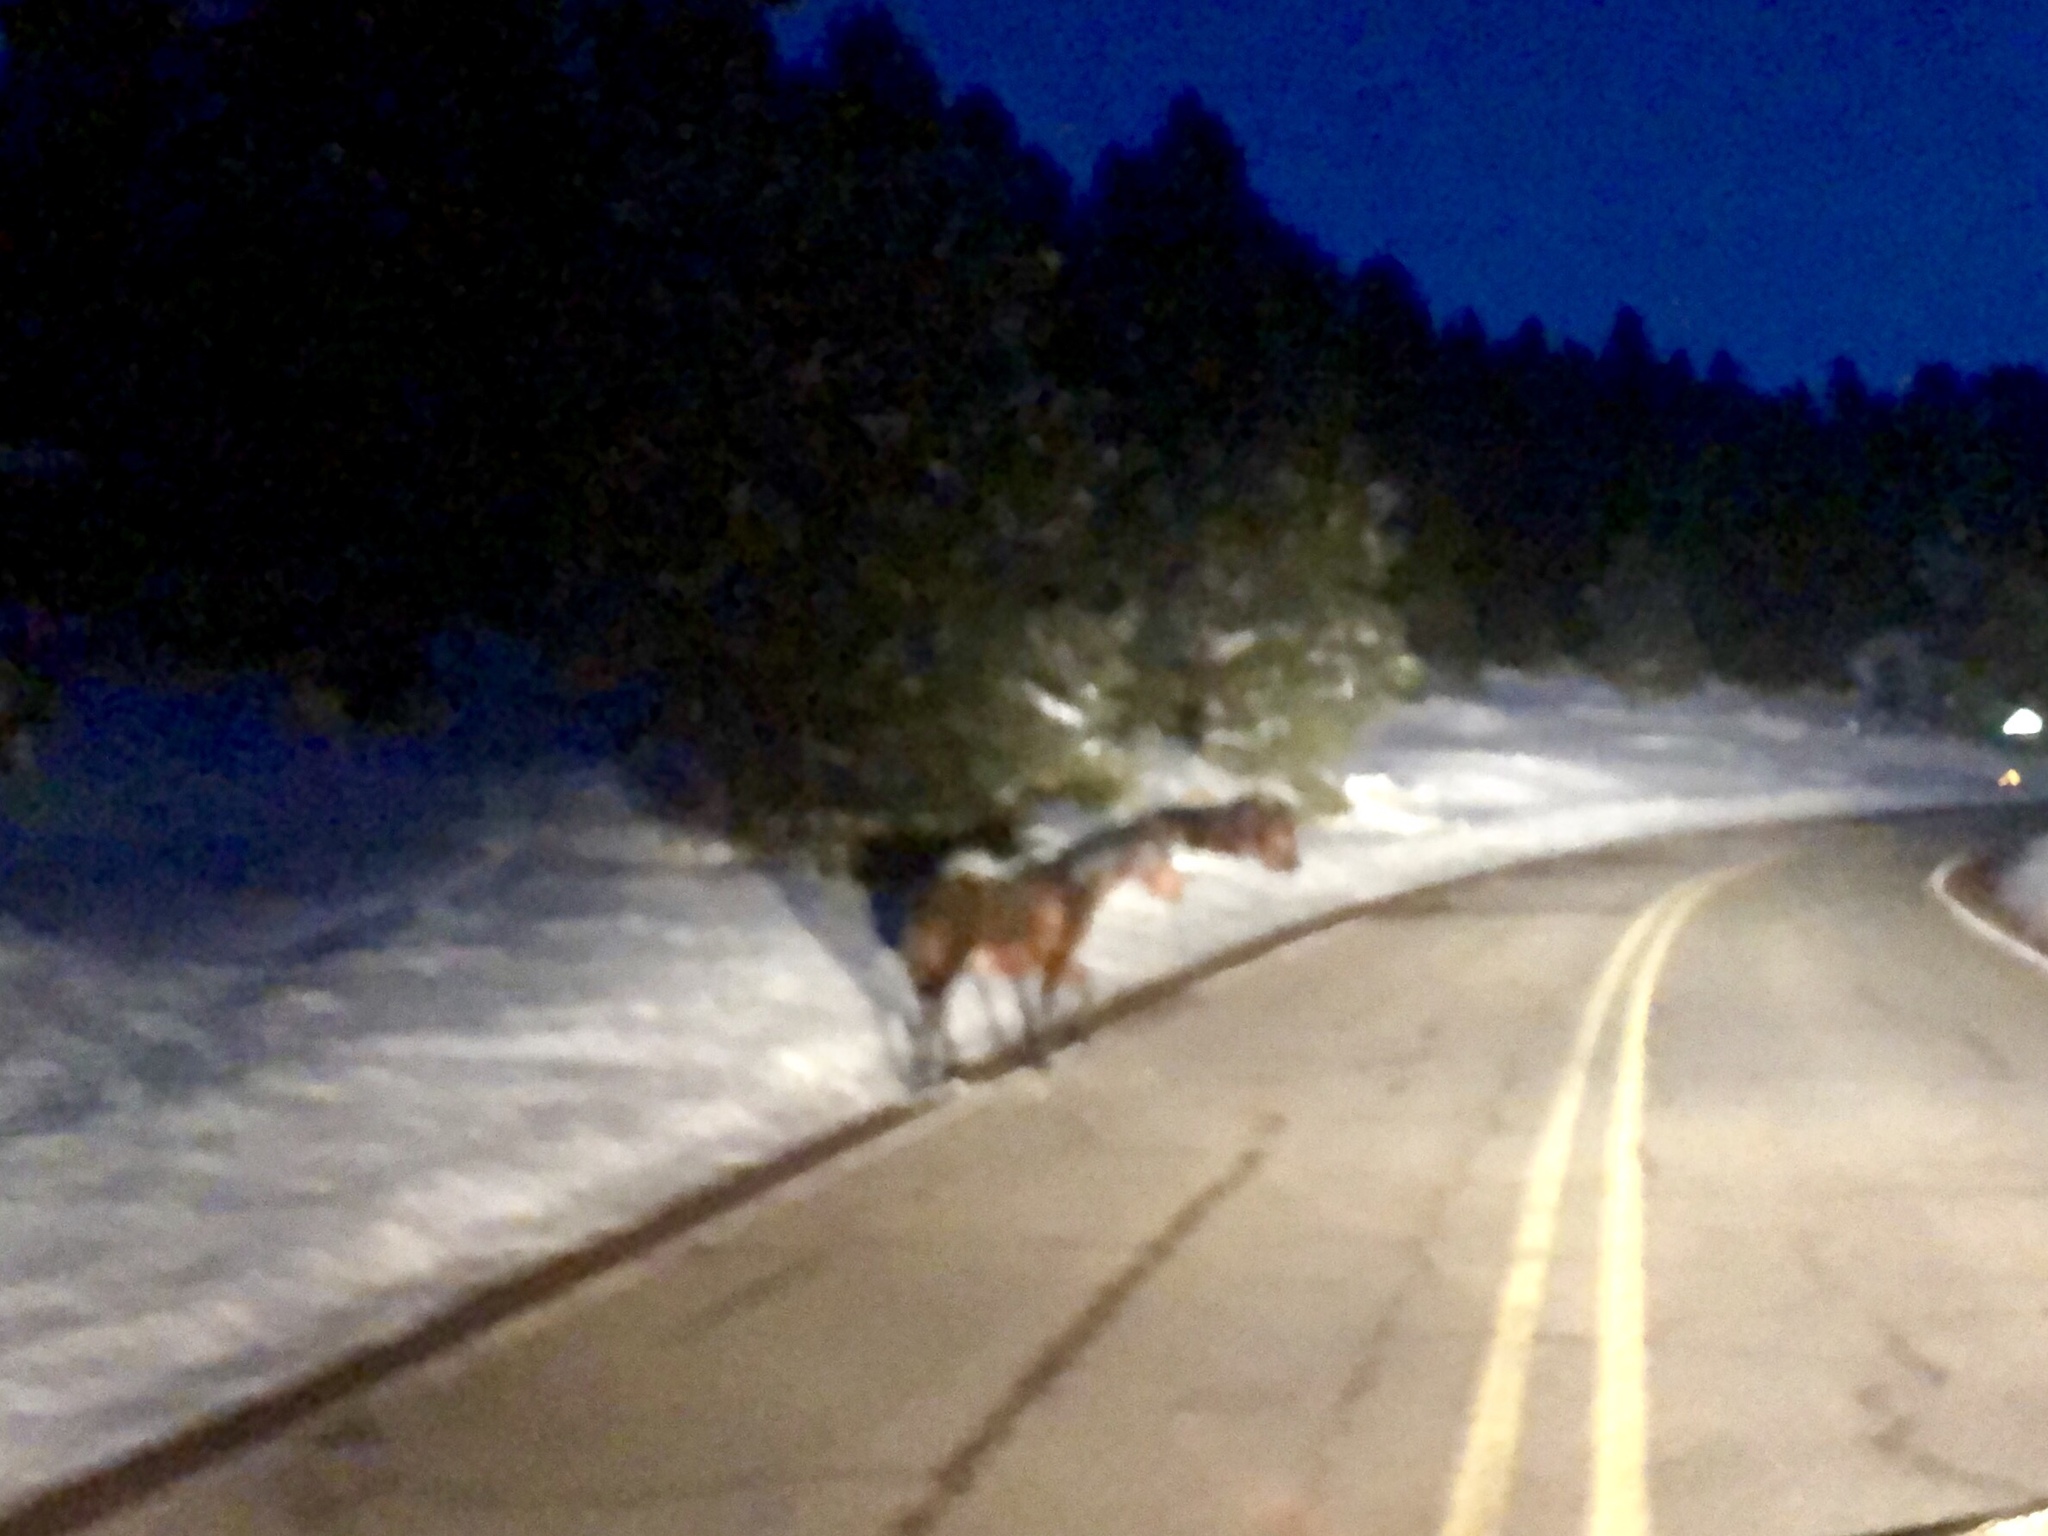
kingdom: Animalia
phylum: Chordata
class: Mammalia
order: Perissodactyla
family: Equidae
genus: Equus
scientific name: Equus caballus
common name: Horse
